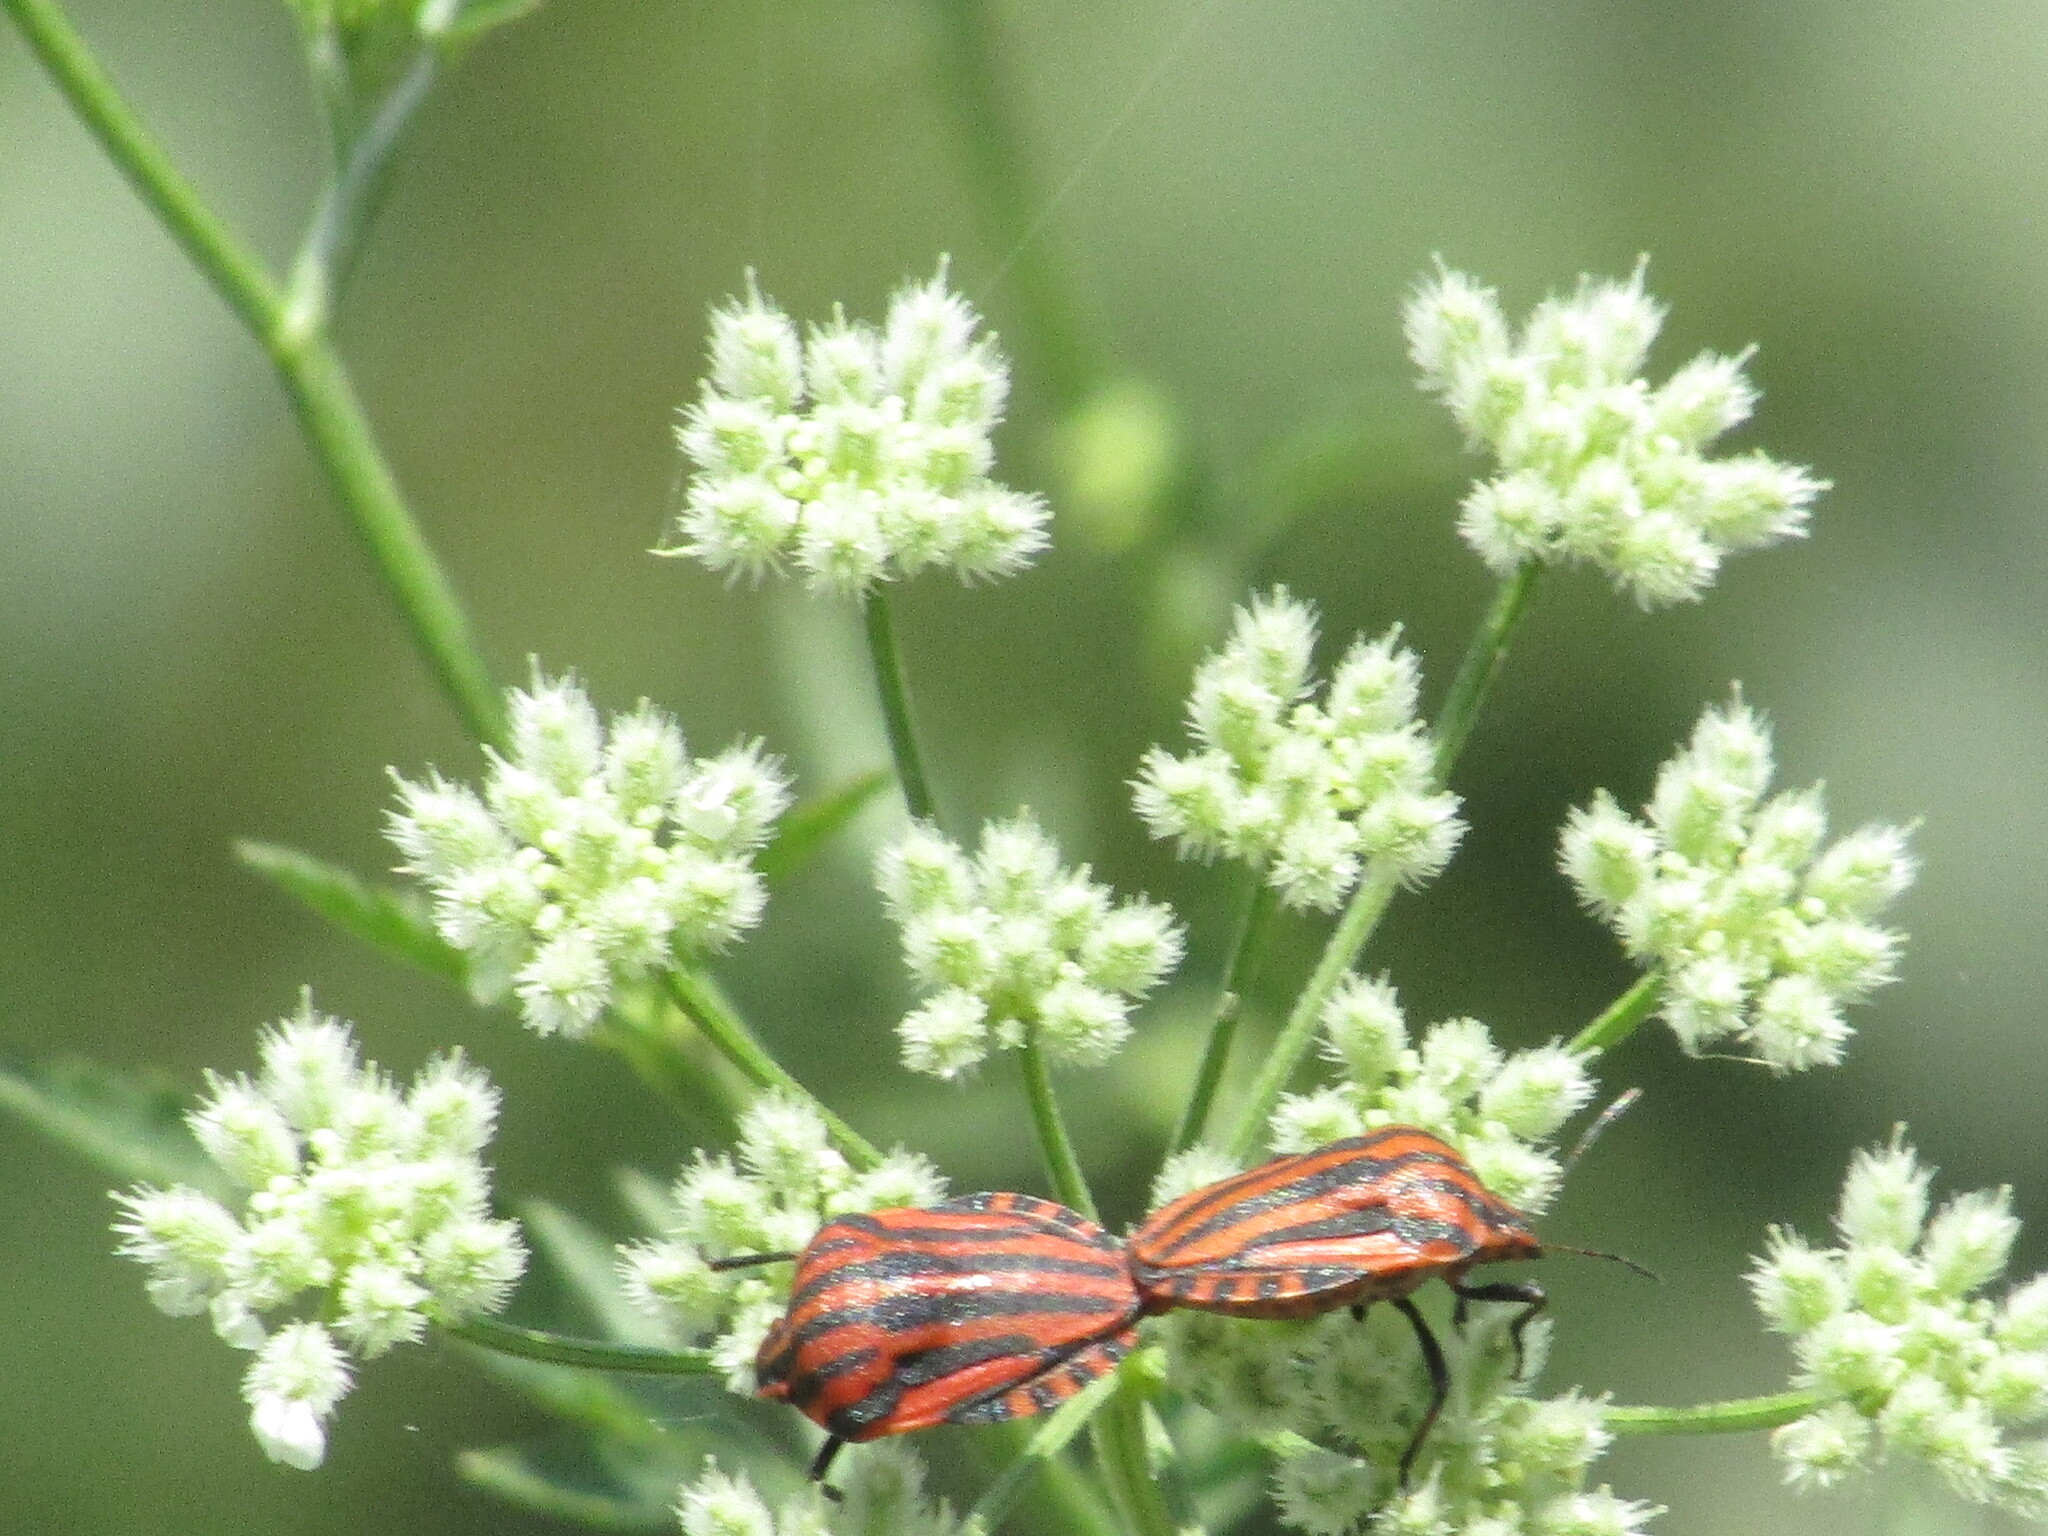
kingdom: Animalia
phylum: Arthropoda
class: Insecta
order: Hemiptera
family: Pentatomidae
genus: Graphosoma
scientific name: Graphosoma italicum
